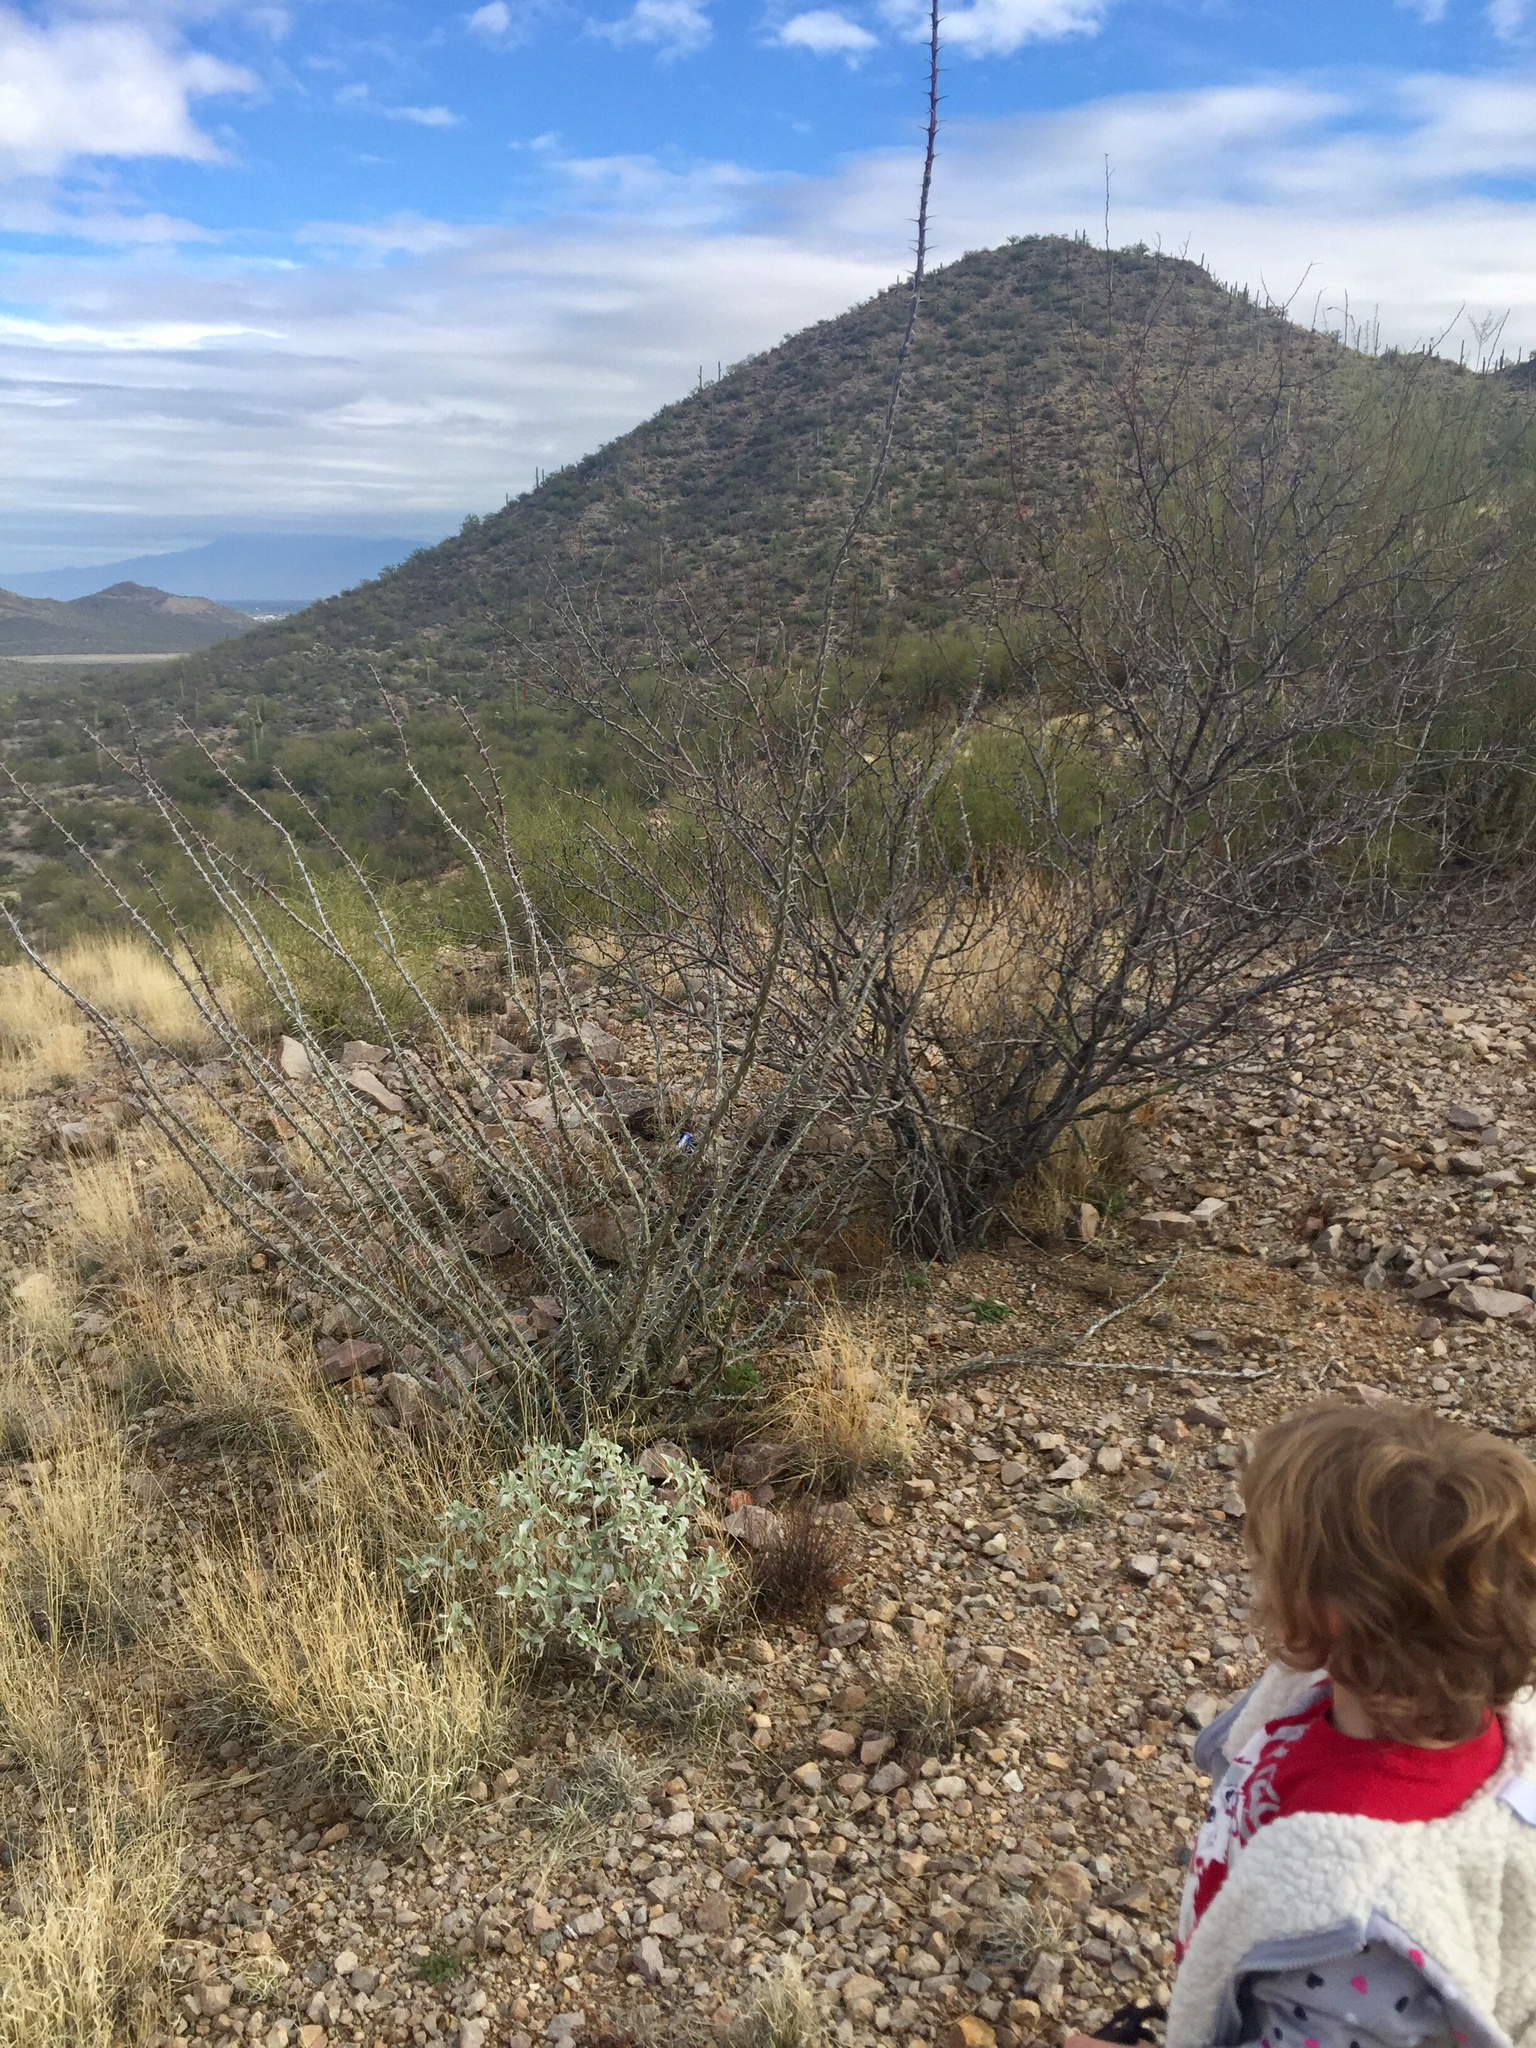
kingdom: Plantae
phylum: Tracheophyta
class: Magnoliopsida
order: Ericales
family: Fouquieriaceae
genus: Fouquieria
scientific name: Fouquieria splendens
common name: Vine-cactus
